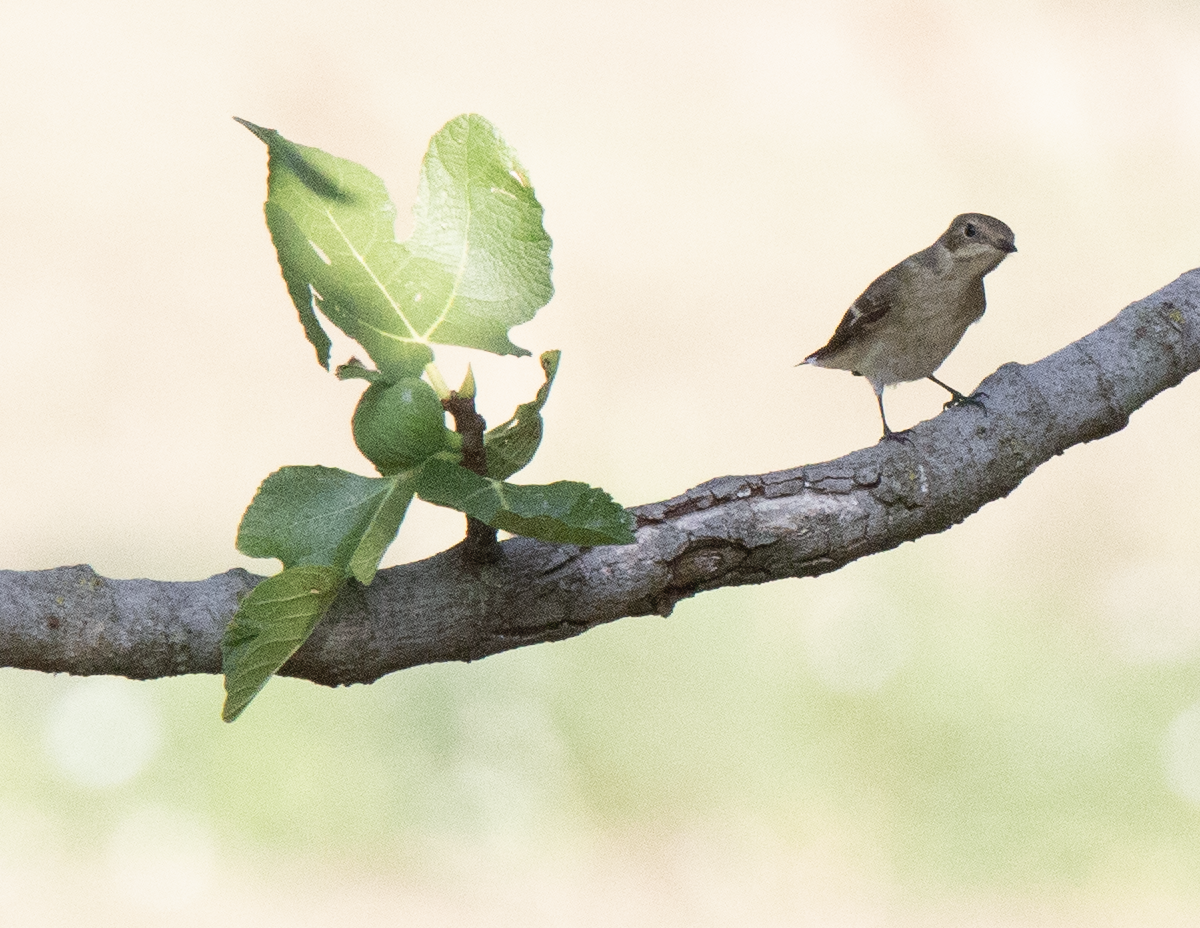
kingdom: Animalia
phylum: Chordata
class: Aves
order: Passeriformes
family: Muscicapidae
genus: Ficedula
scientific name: Ficedula hypoleuca
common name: European pied flycatcher
